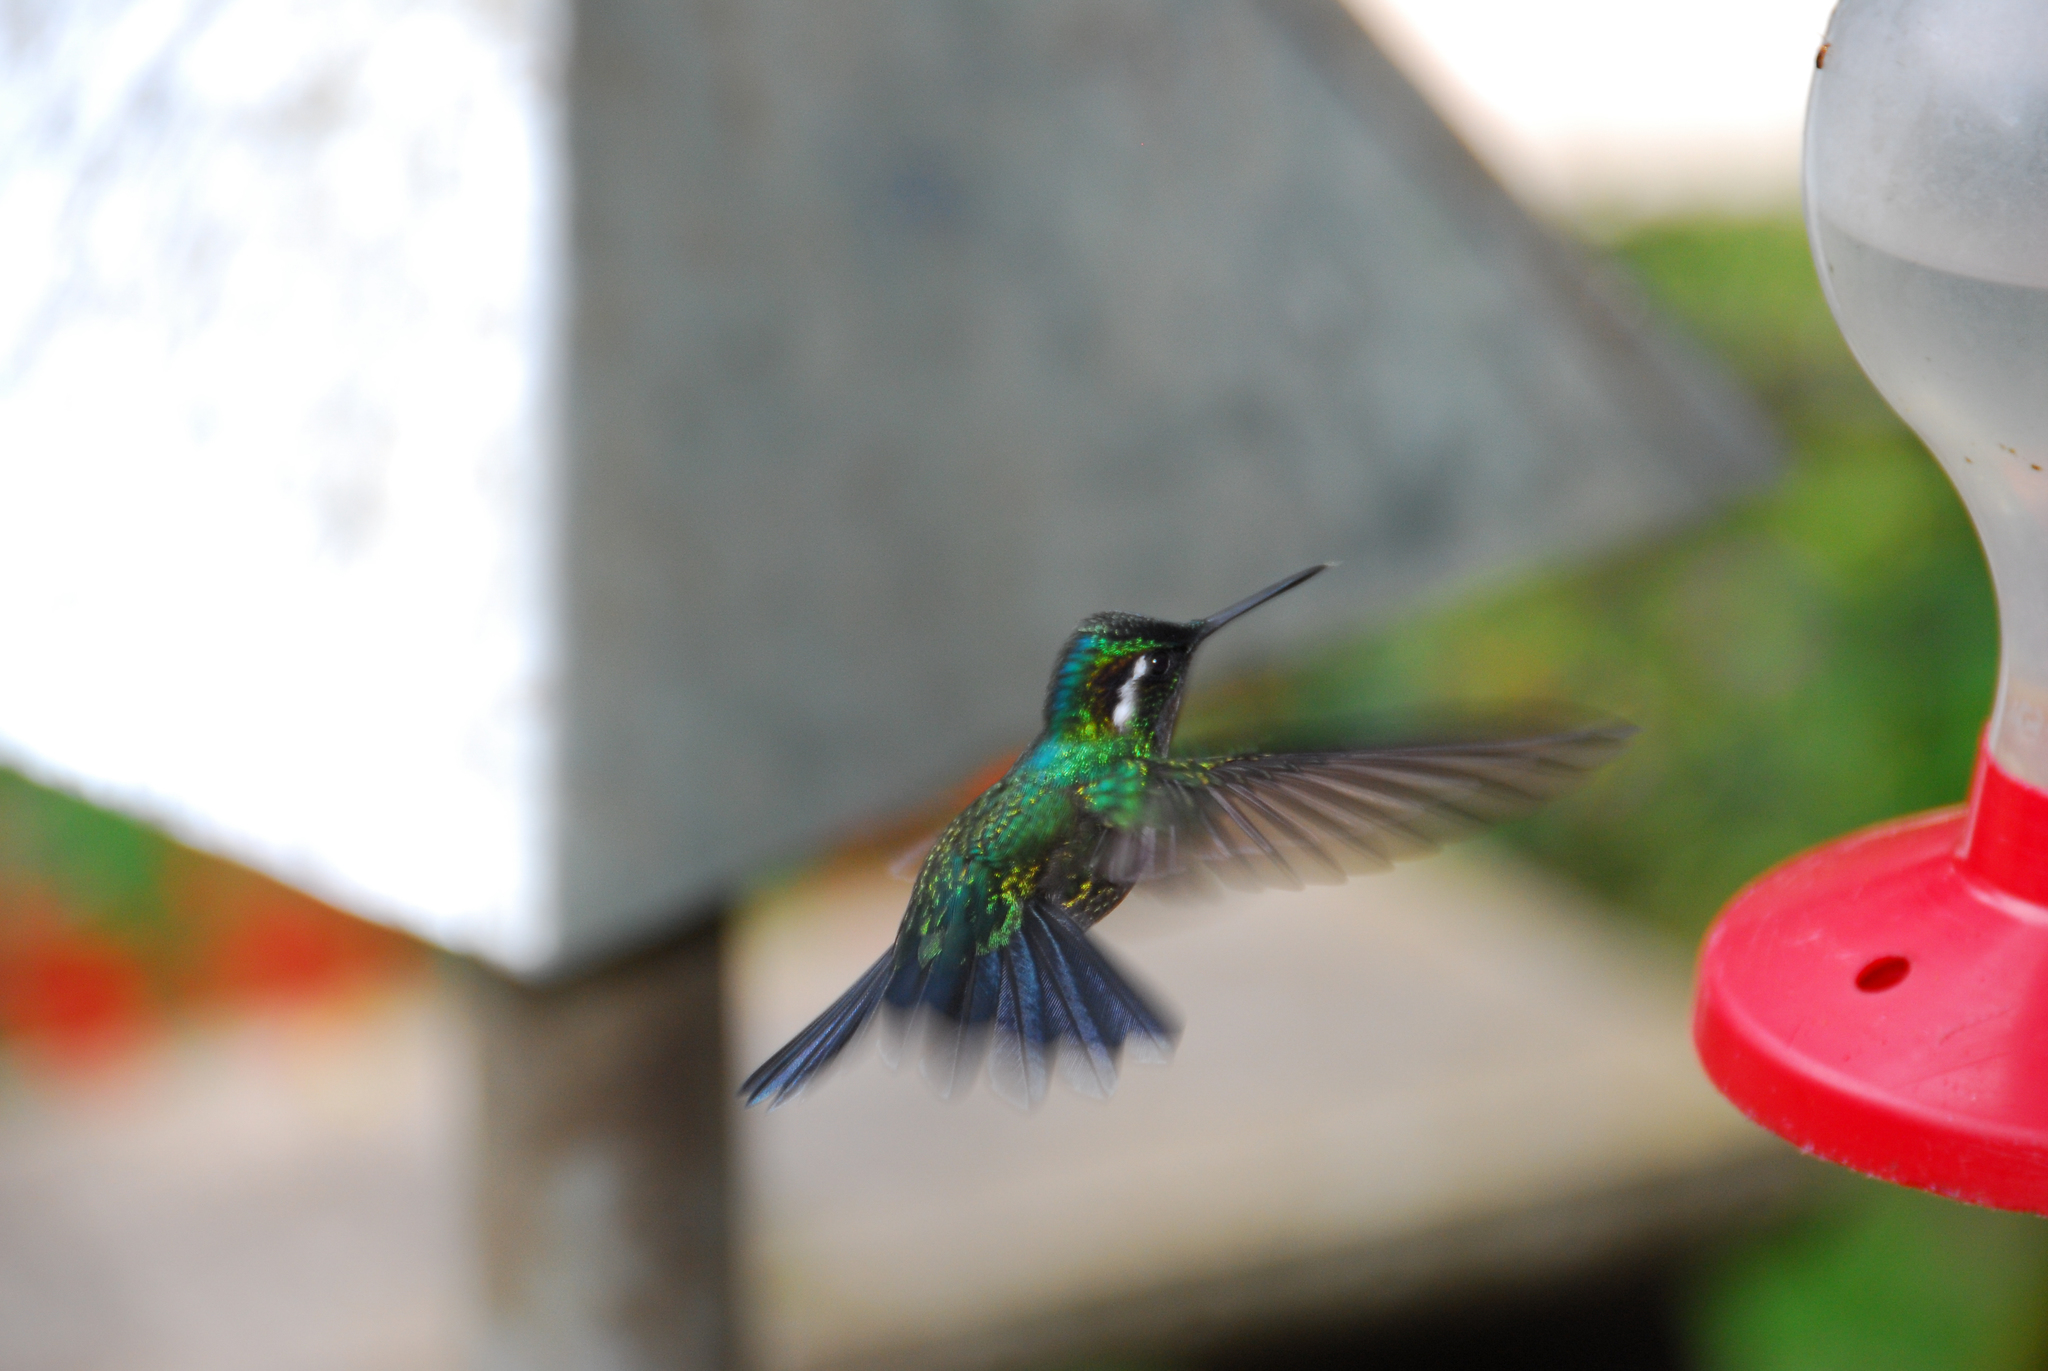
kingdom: Animalia
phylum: Chordata
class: Aves
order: Apodiformes
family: Trochilidae
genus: Lampornis
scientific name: Lampornis calolaemus
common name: Purple-throated mountain-gem
